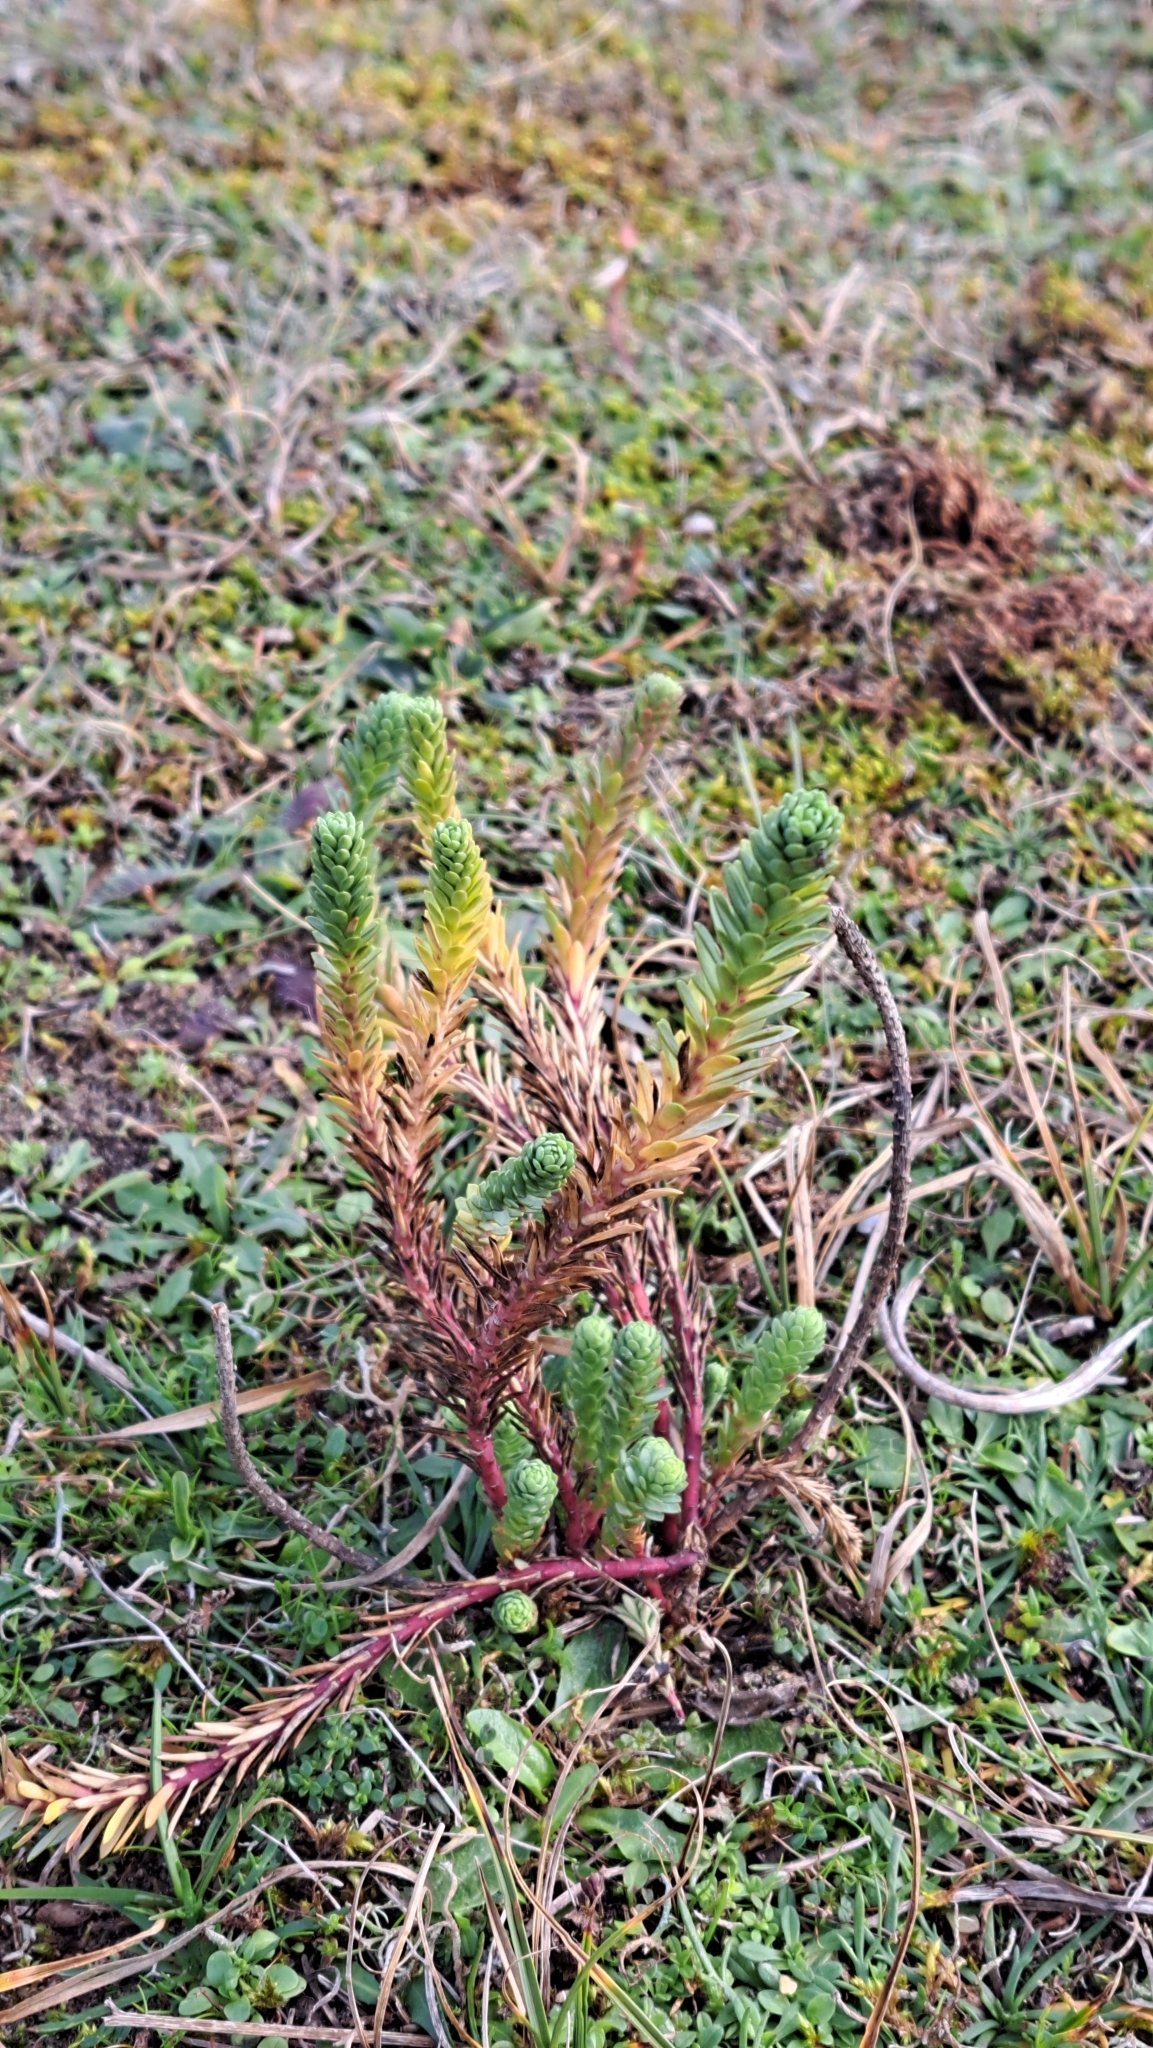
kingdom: Plantae
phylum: Tracheophyta
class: Magnoliopsida
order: Malpighiales
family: Euphorbiaceae
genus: Euphorbia
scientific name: Euphorbia paralias
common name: Sea spurge
